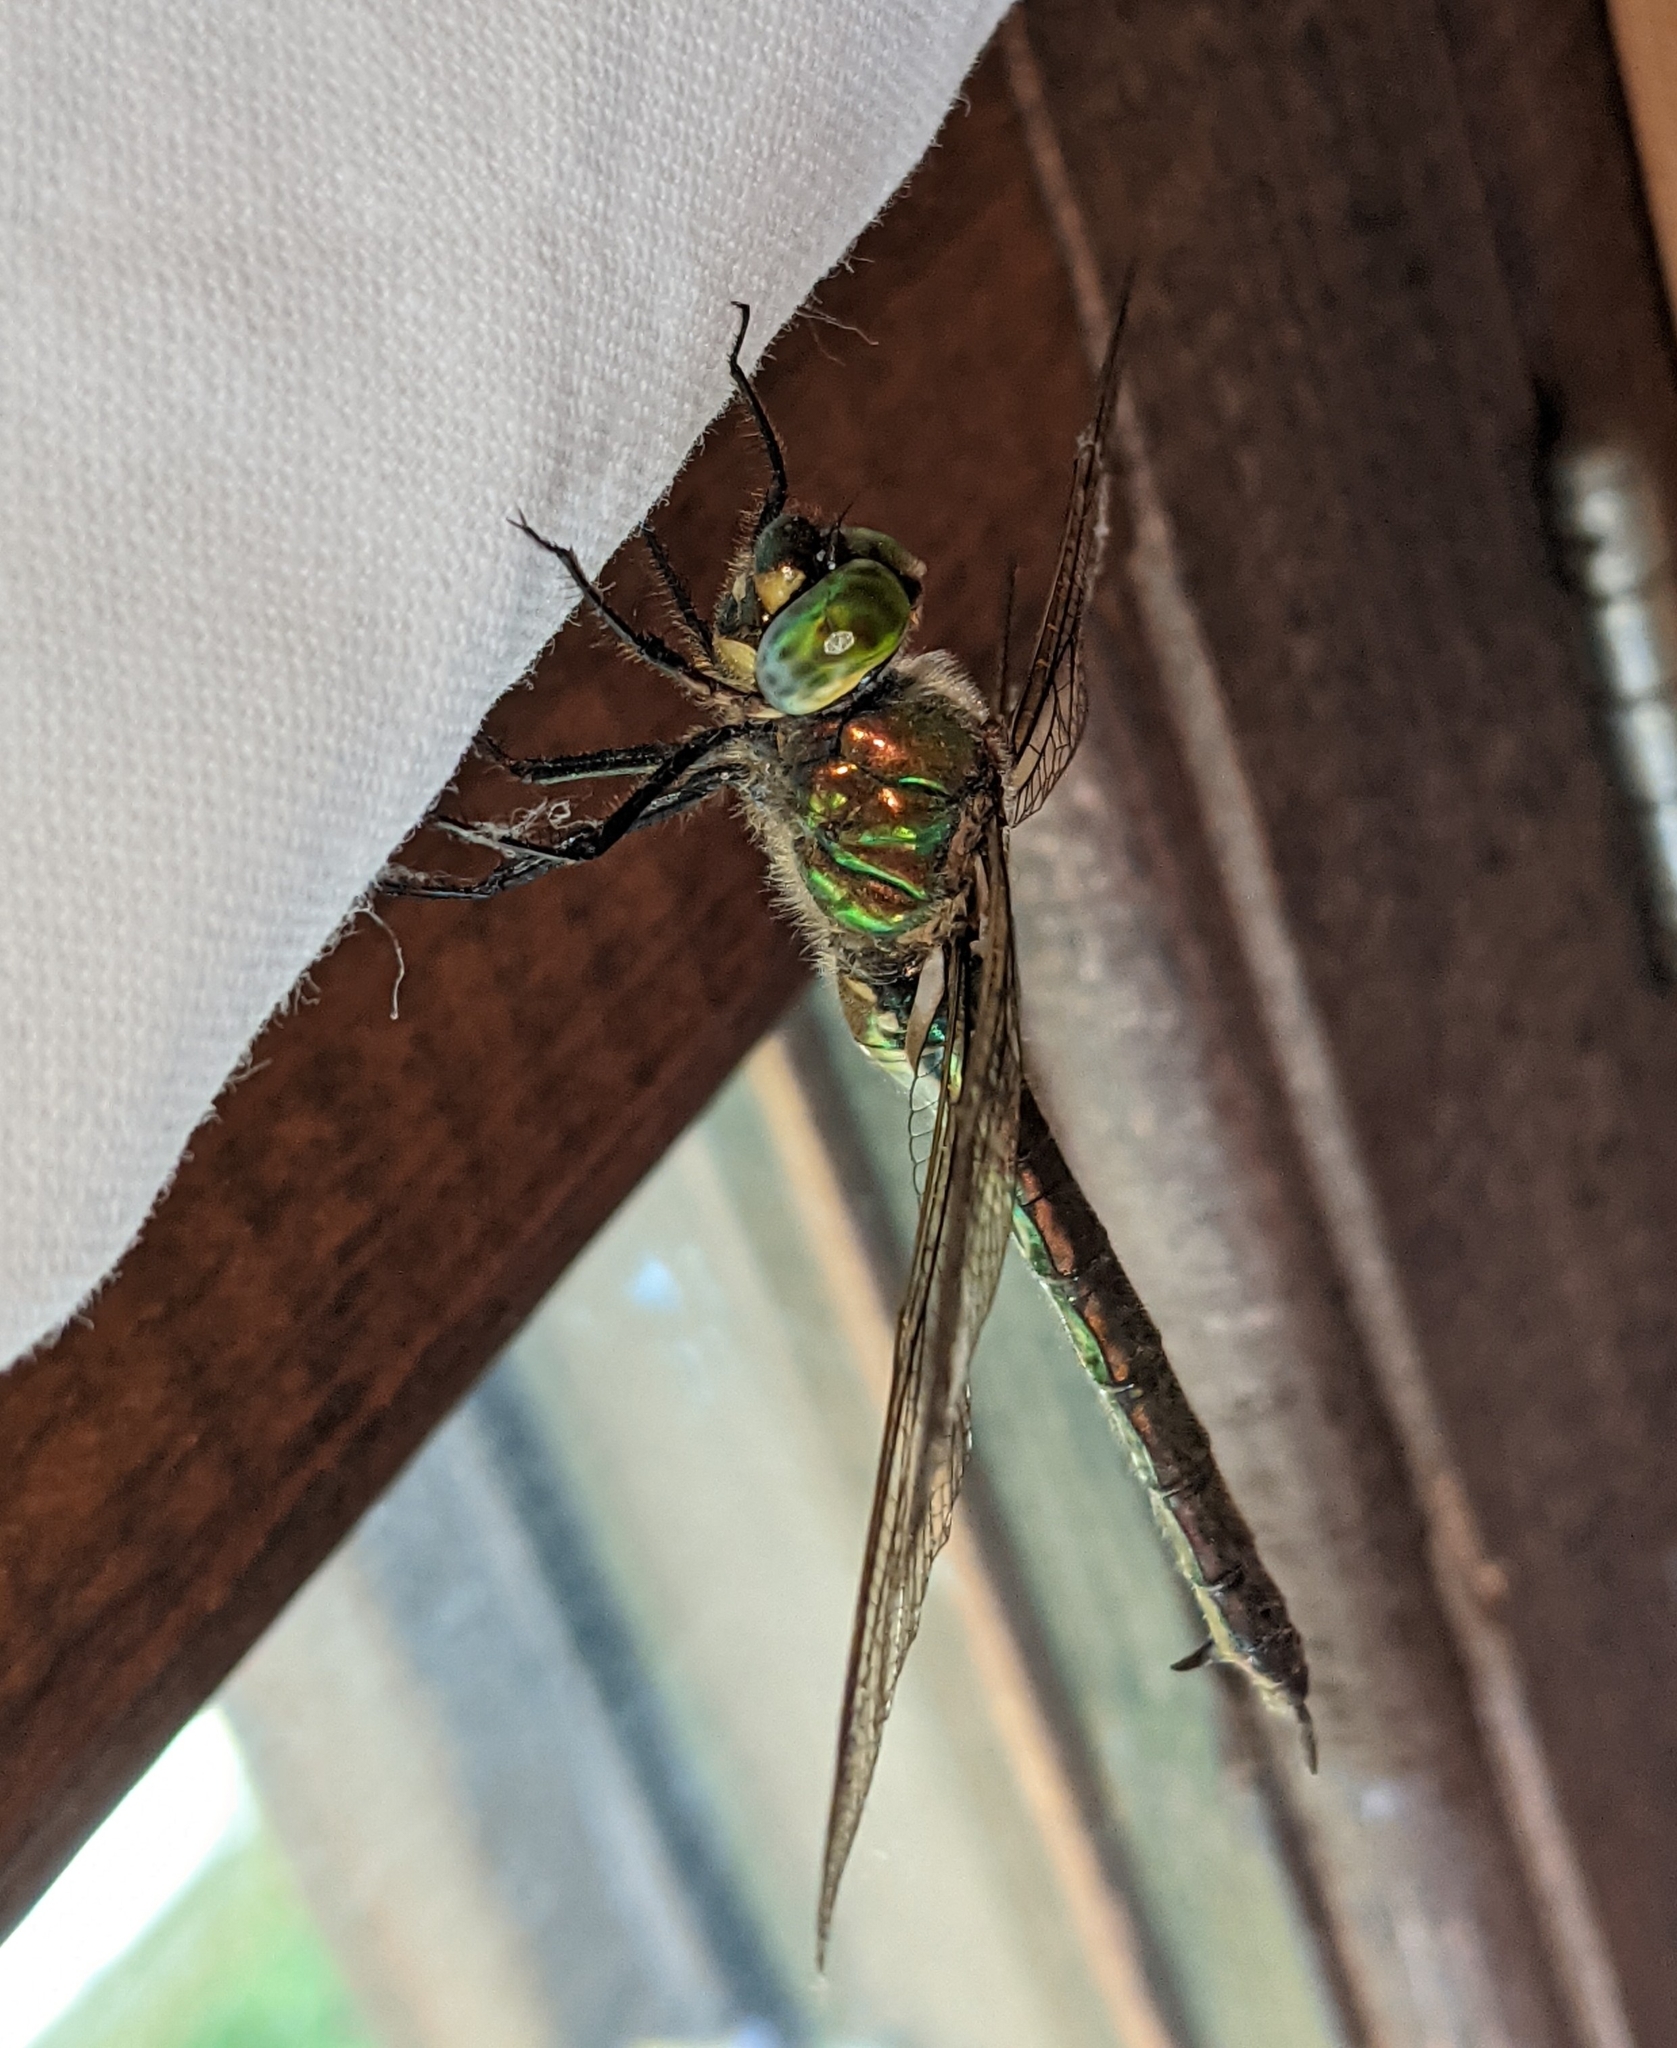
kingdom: Animalia
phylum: Arthropoda
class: Insecta
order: Odonata
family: Corduliidae
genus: Somatochlora
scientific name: Somatochlora metallica
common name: Brilliant emerald
